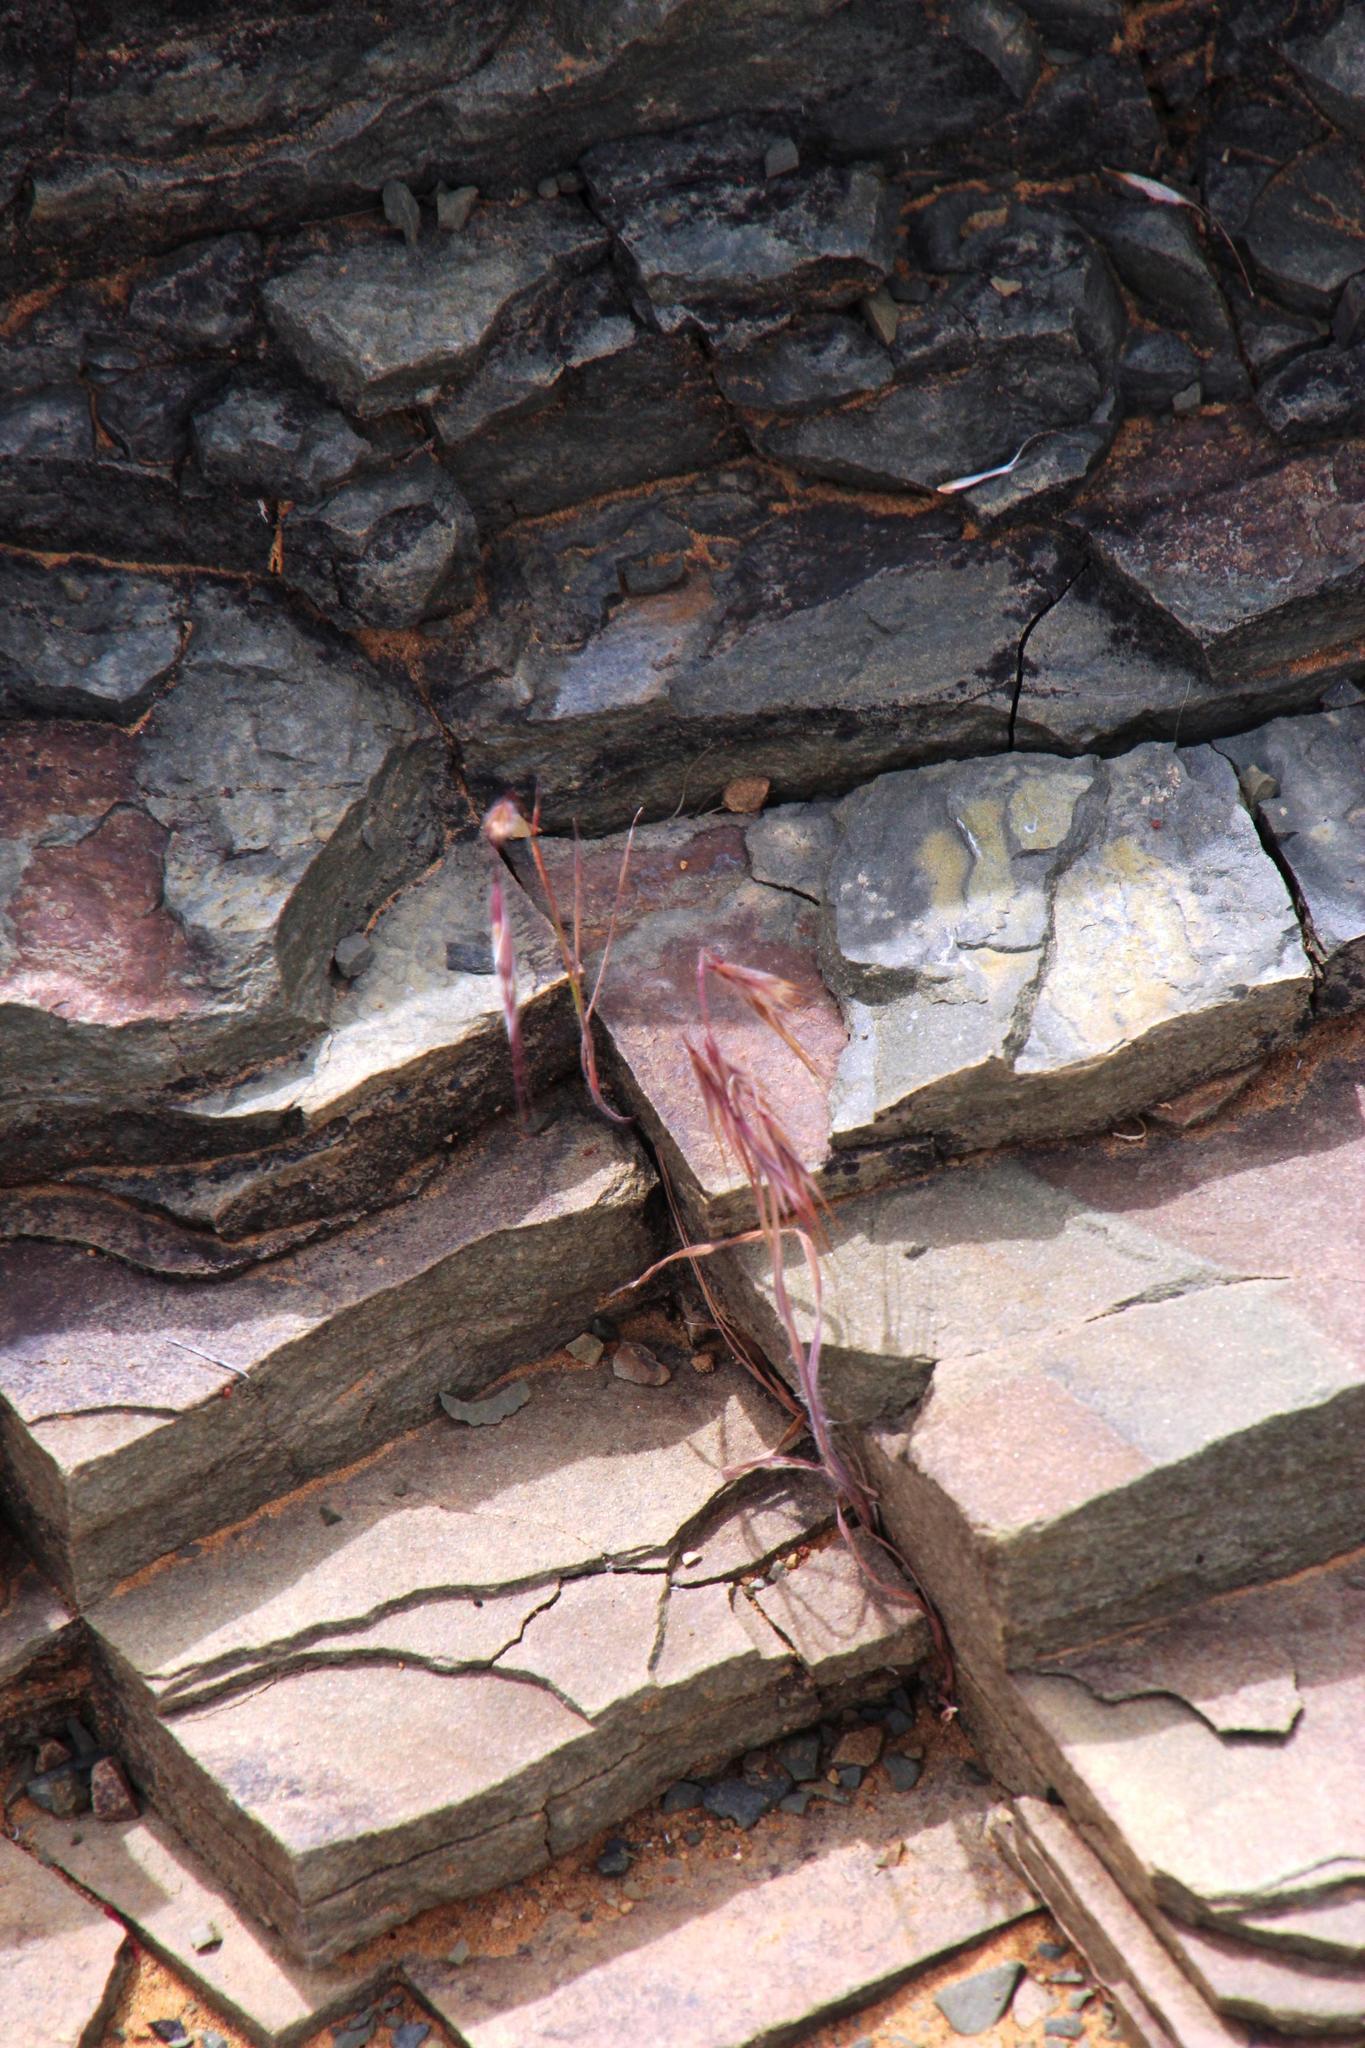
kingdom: Plantae
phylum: Tracheophyta
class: Liliopsida
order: Poales
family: Poaceae
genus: Bromus
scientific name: Bromus pectinatus
